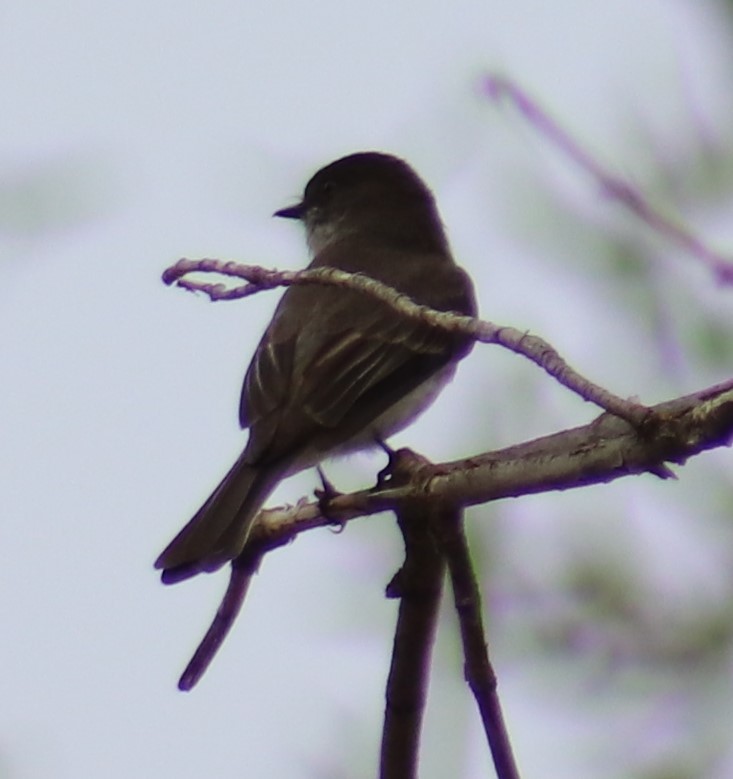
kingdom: Animalia
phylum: Chordata
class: Aves
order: Passeriformes
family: Tyrannidae
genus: Sayornis
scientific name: Sayornis phoebe
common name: Eastern phoebe
